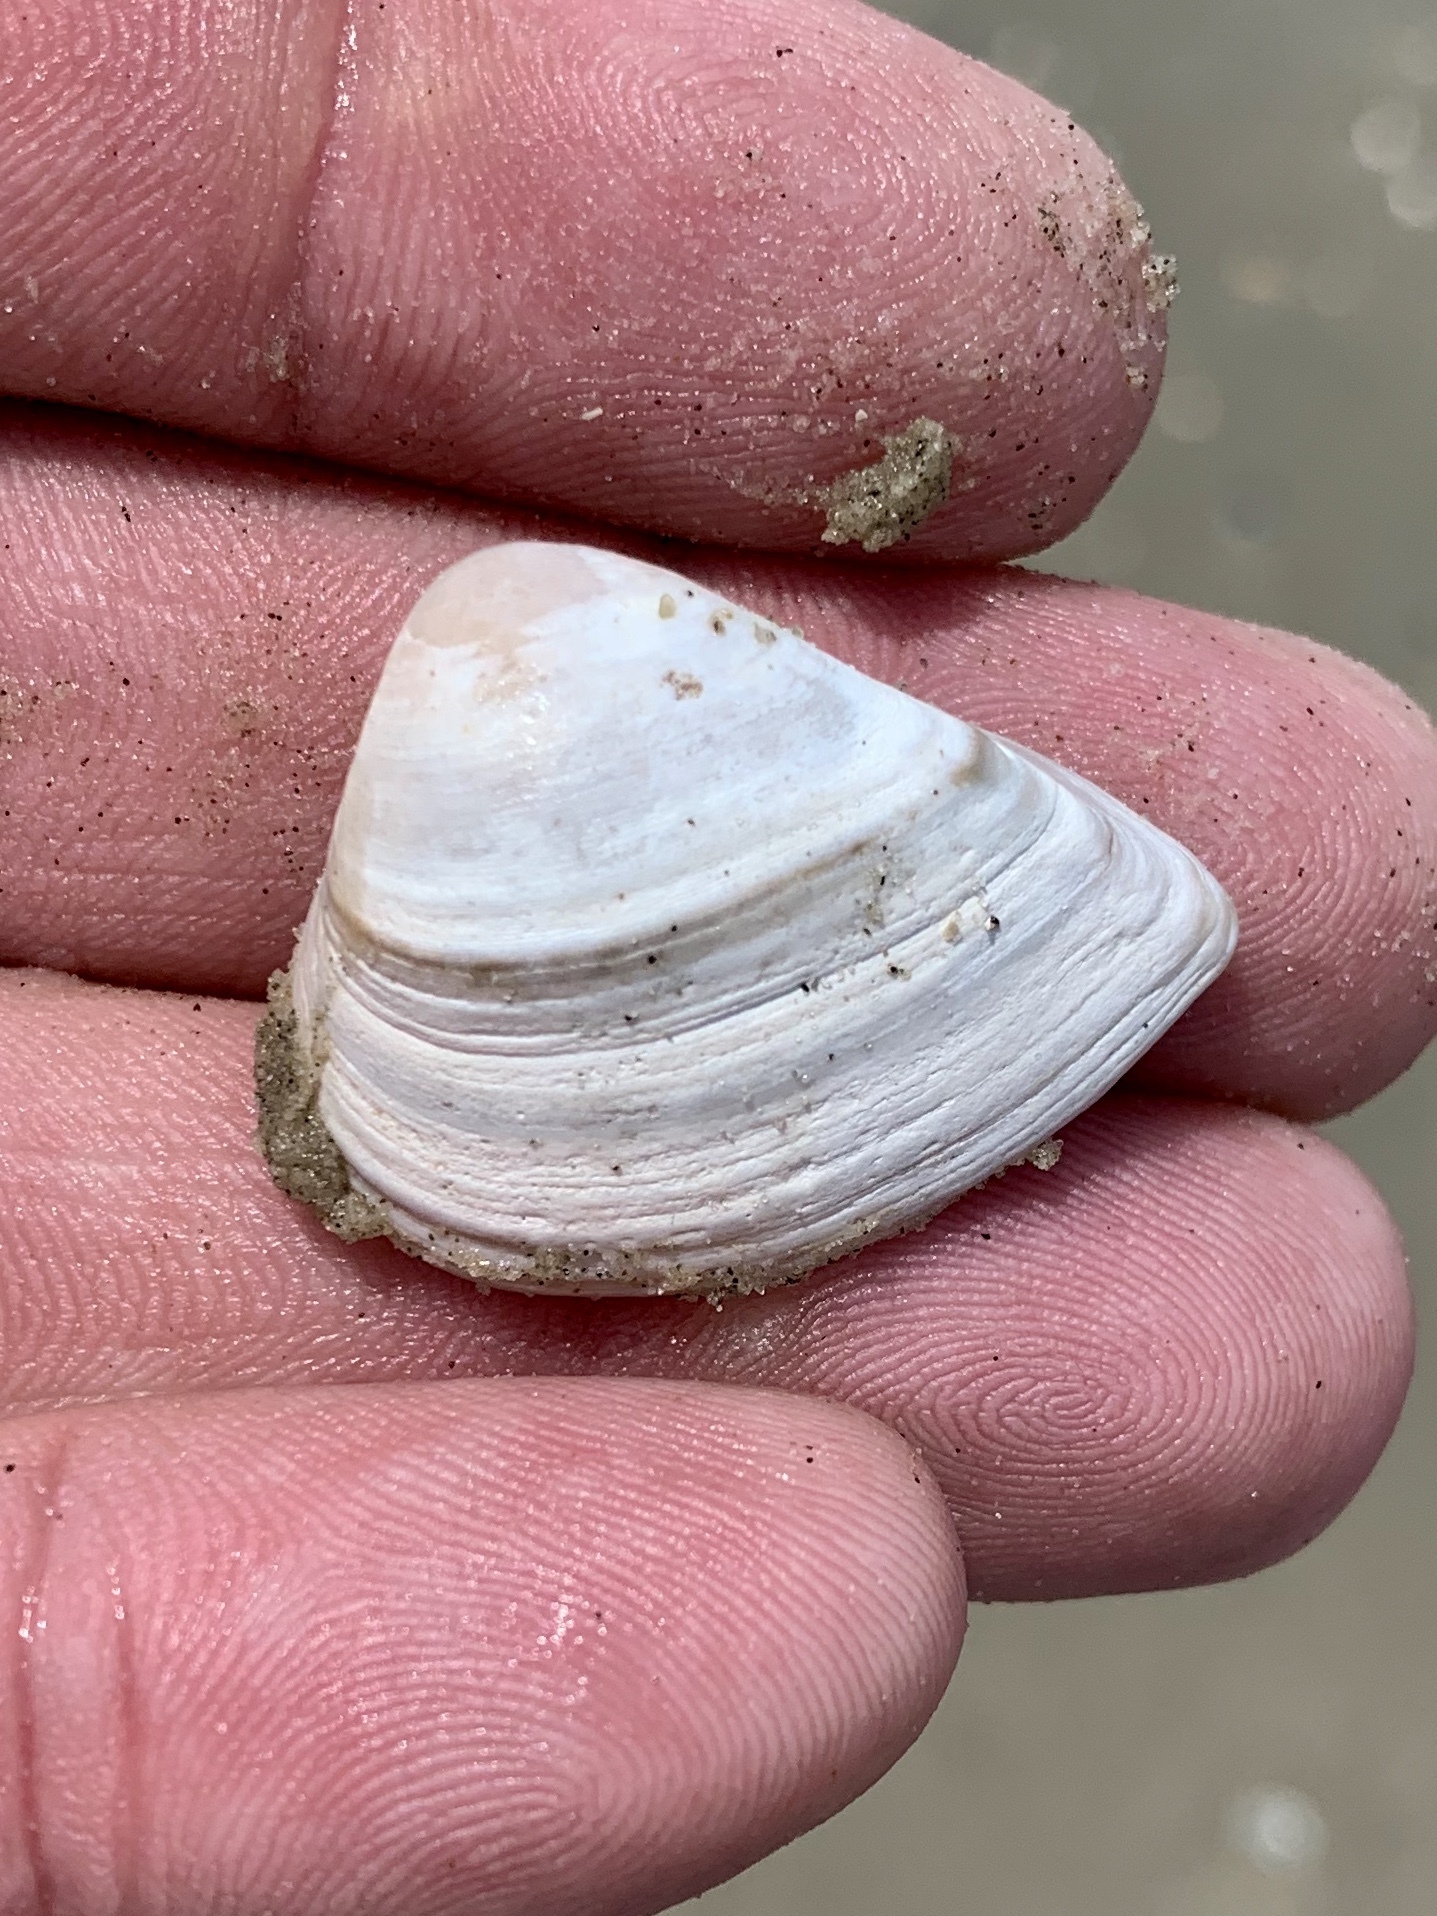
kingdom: Animalia
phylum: Mollusca
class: Bivalvia
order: Venerida
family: Mactridae
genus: Rangia
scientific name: Rangia flexuosa
